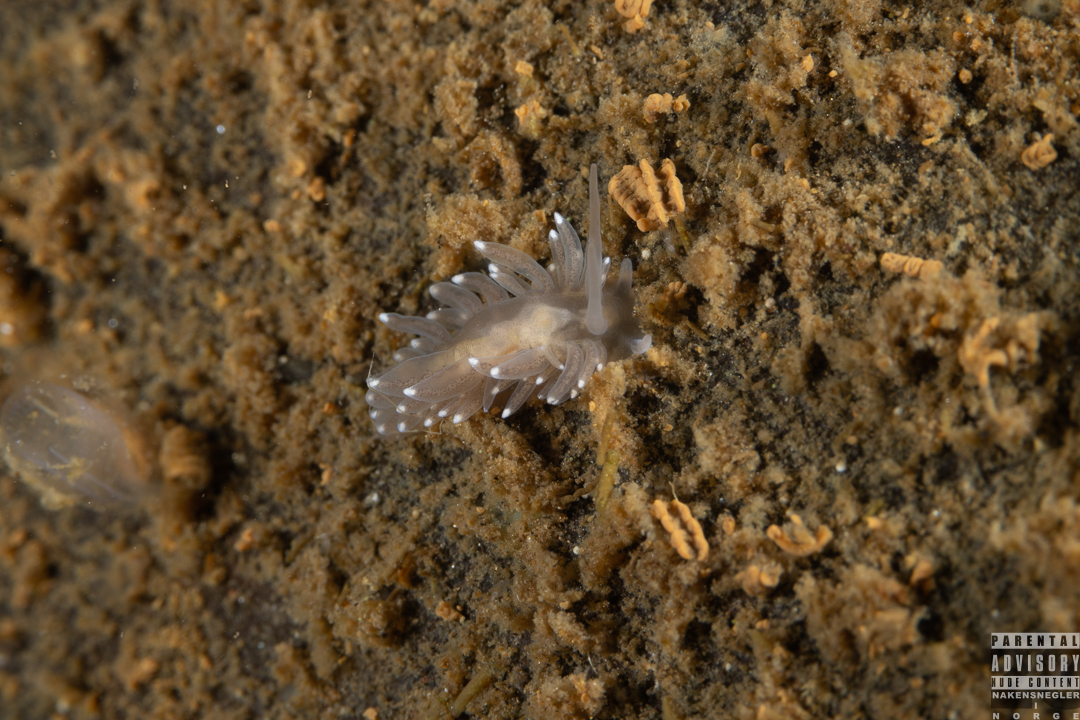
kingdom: Animalia
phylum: Mollusca
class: Gastropoda
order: Nudibranchia
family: Cuthonidae
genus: Bohuslania
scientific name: Bohuslania matsmichaeli
